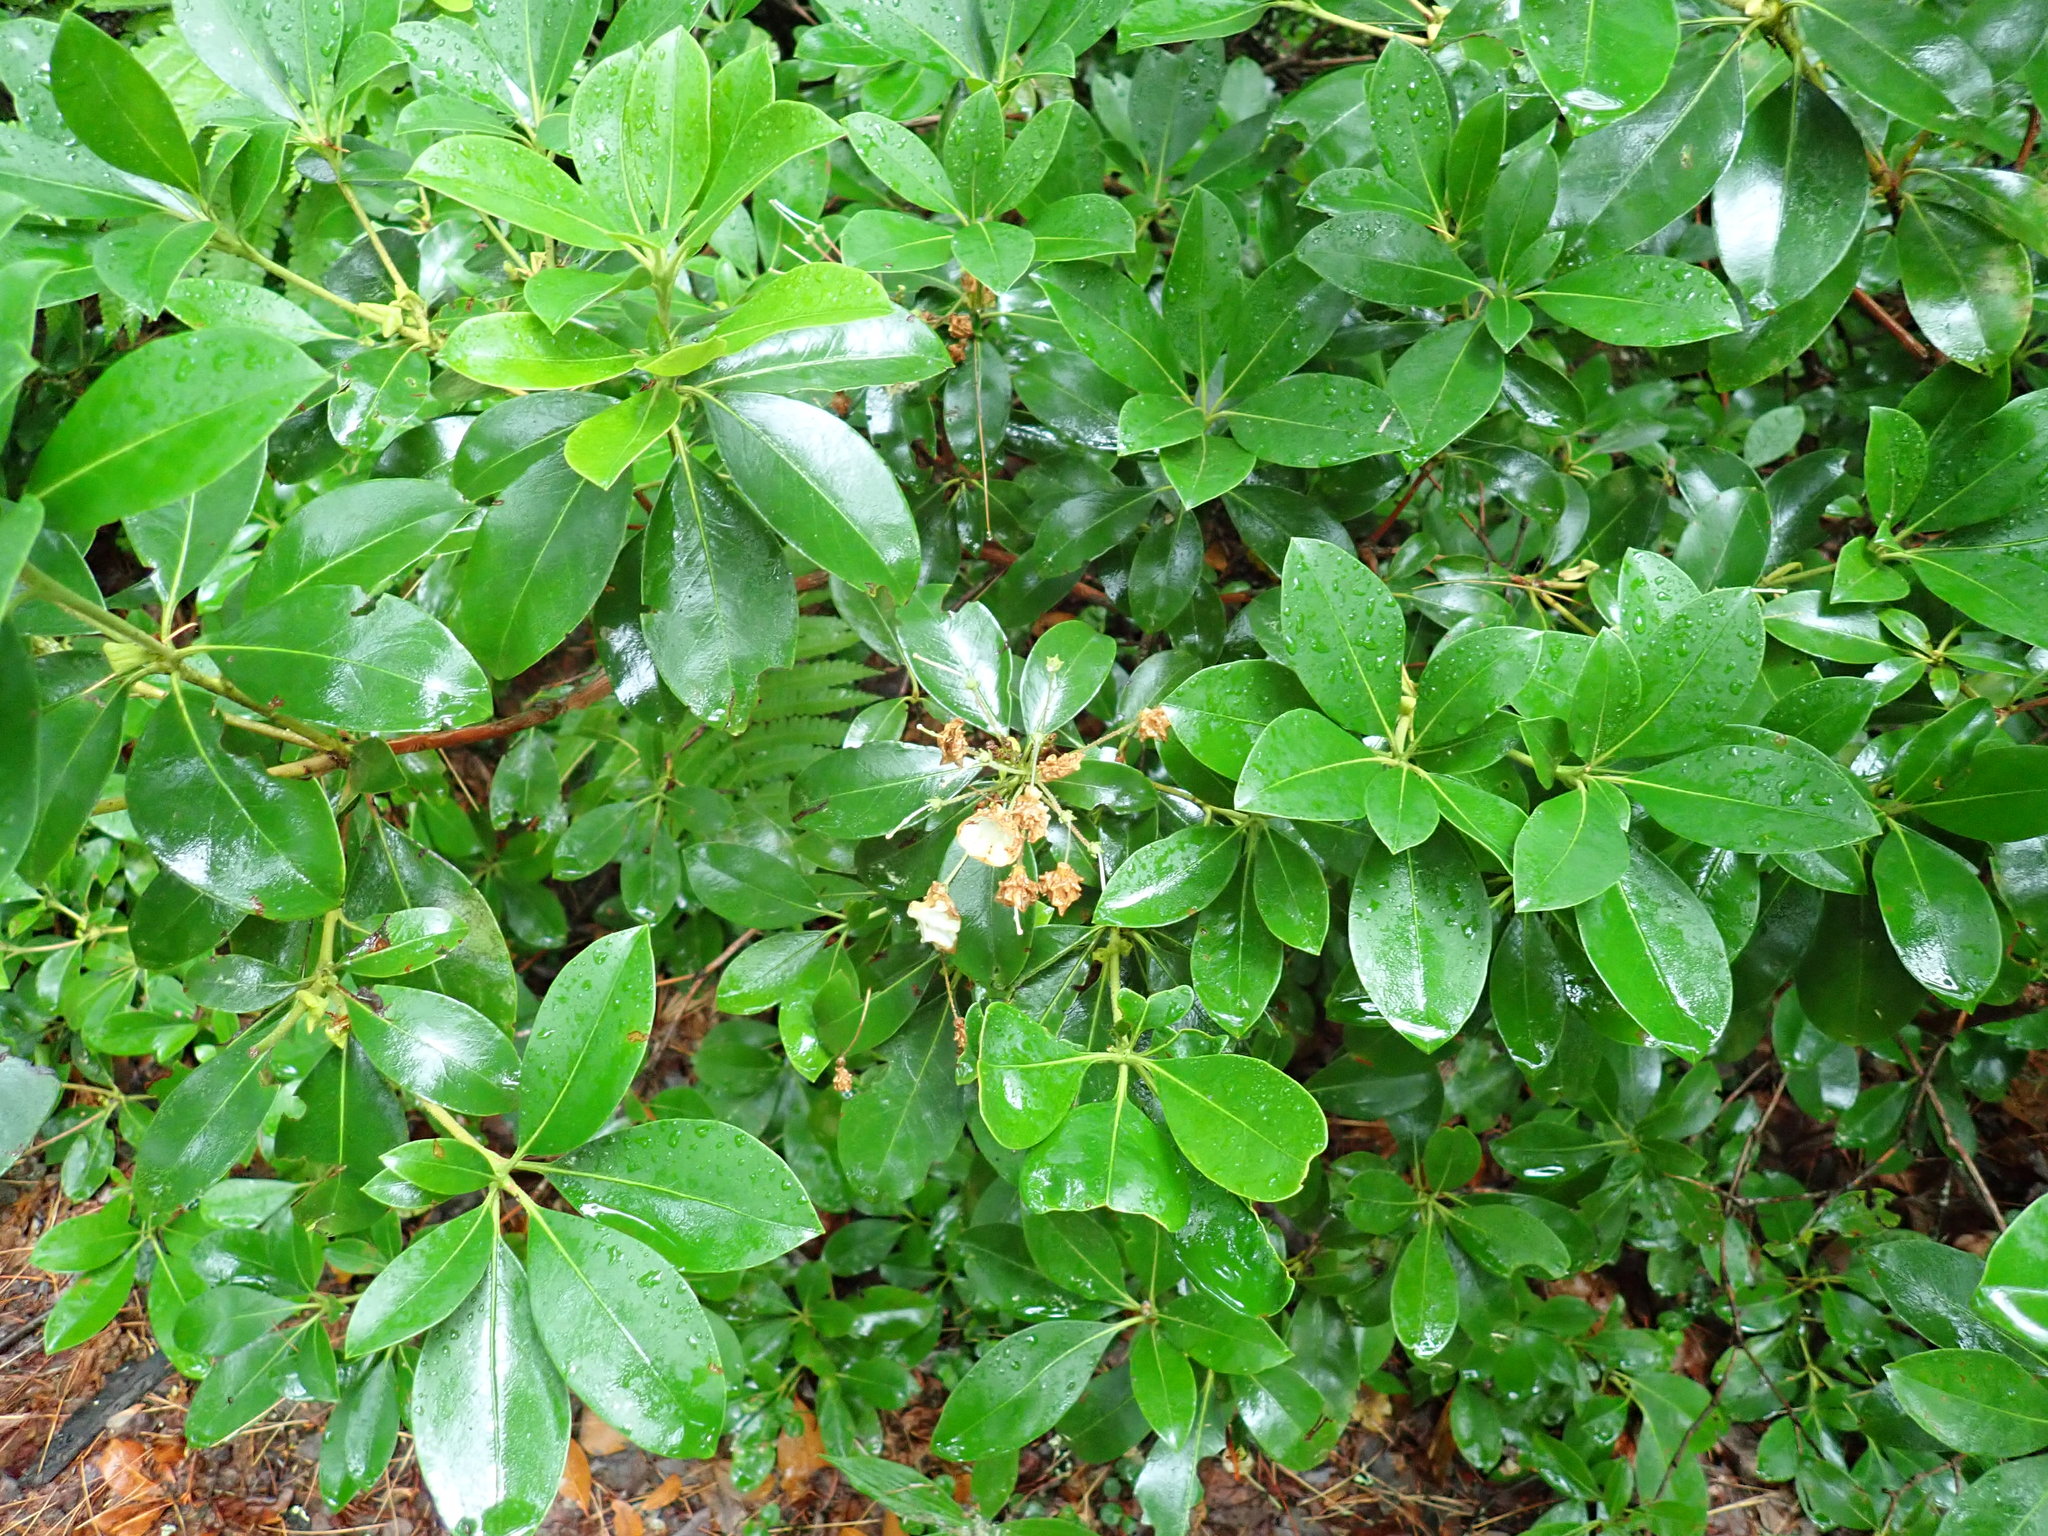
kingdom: Plantae
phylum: Tracheophyta
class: Magnoliopsida
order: Ericales
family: Ericaceae
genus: Kalmia
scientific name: Kalmia latifolia
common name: Mountain-laurel
